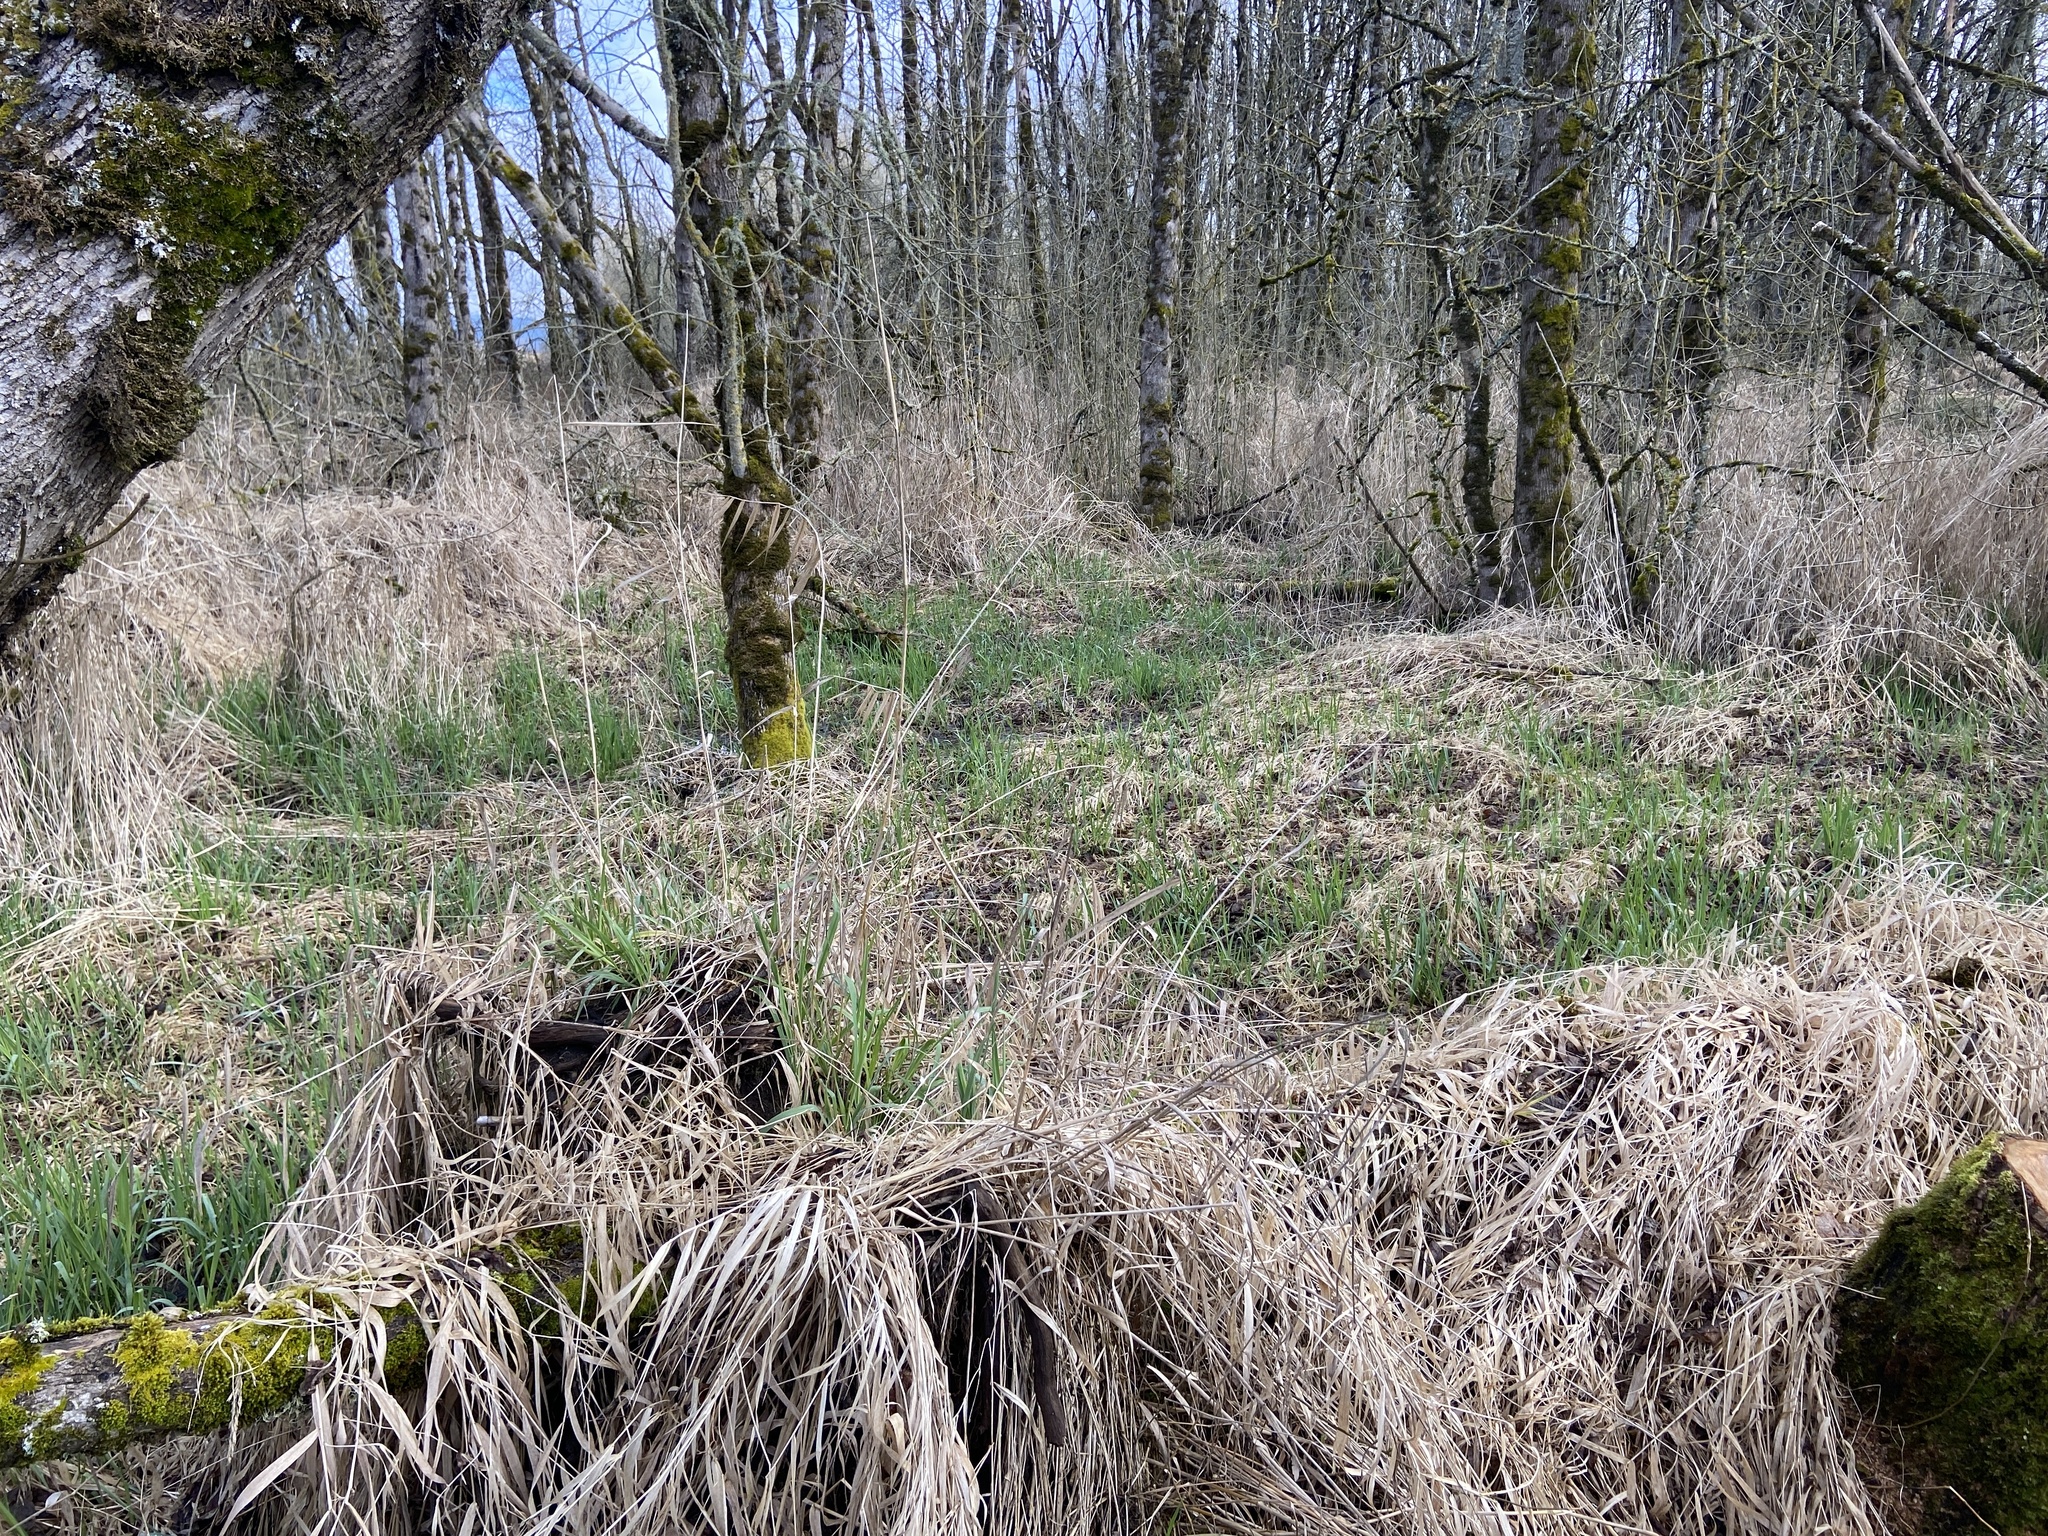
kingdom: Plantae
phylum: Tracheophyta
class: Liliopsida
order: Poales
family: Poaceae
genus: Phalaris
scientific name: Phalaris arundinacea
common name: Reed canary-grass
